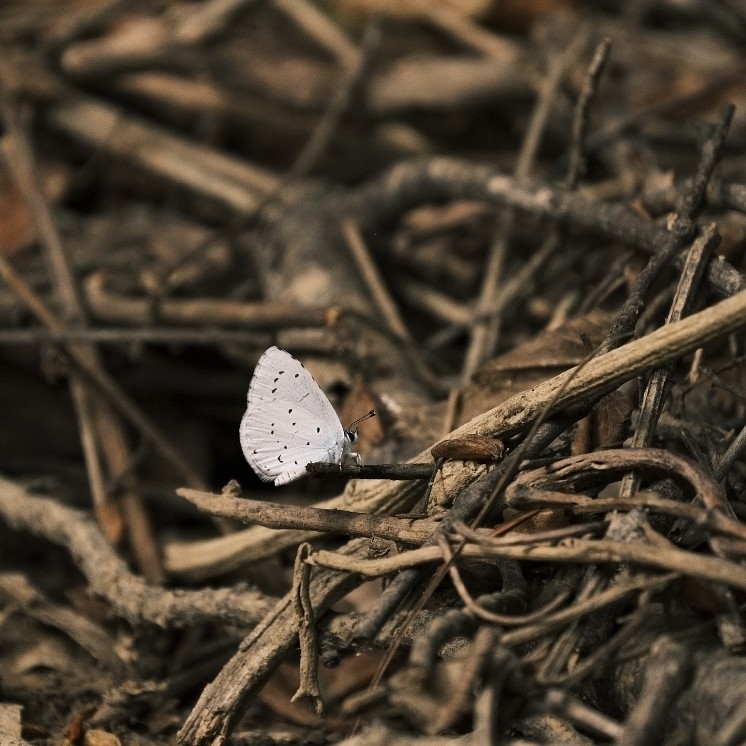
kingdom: Animalia
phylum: Arthropoda
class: Insecta
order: Lepidoptera
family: Lycaenidae
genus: Celastrina
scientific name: Celastrina argiolus
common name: Holly blue
